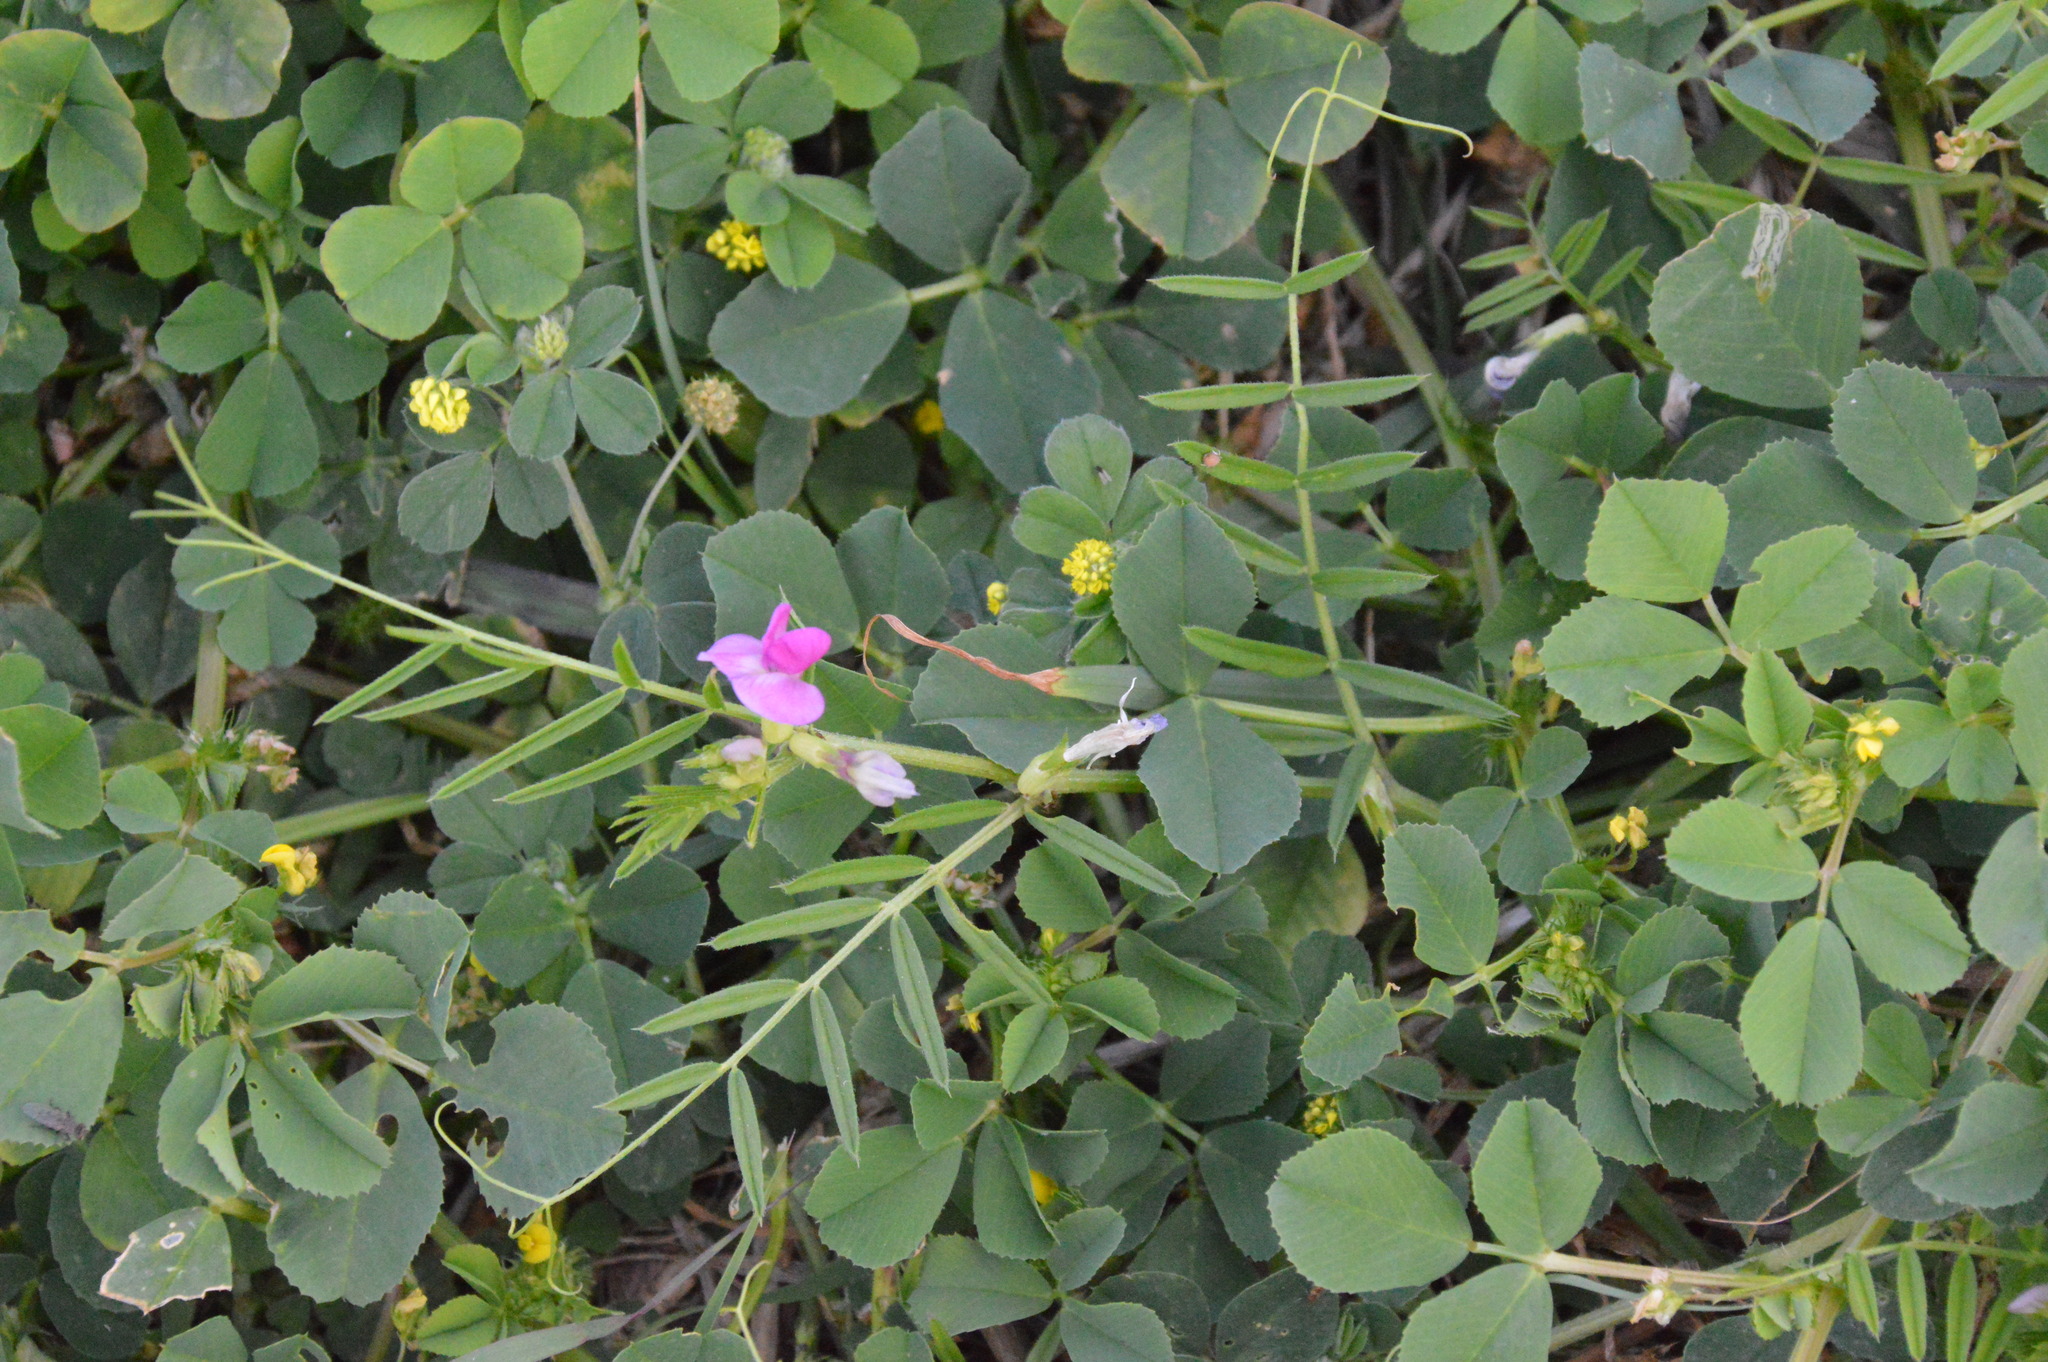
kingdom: Plantae
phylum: Tracheophyta
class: Magnoliopsida
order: Fabales
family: Fabaceae
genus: Vicia
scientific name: Vicia sativa
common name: Garden vetch
